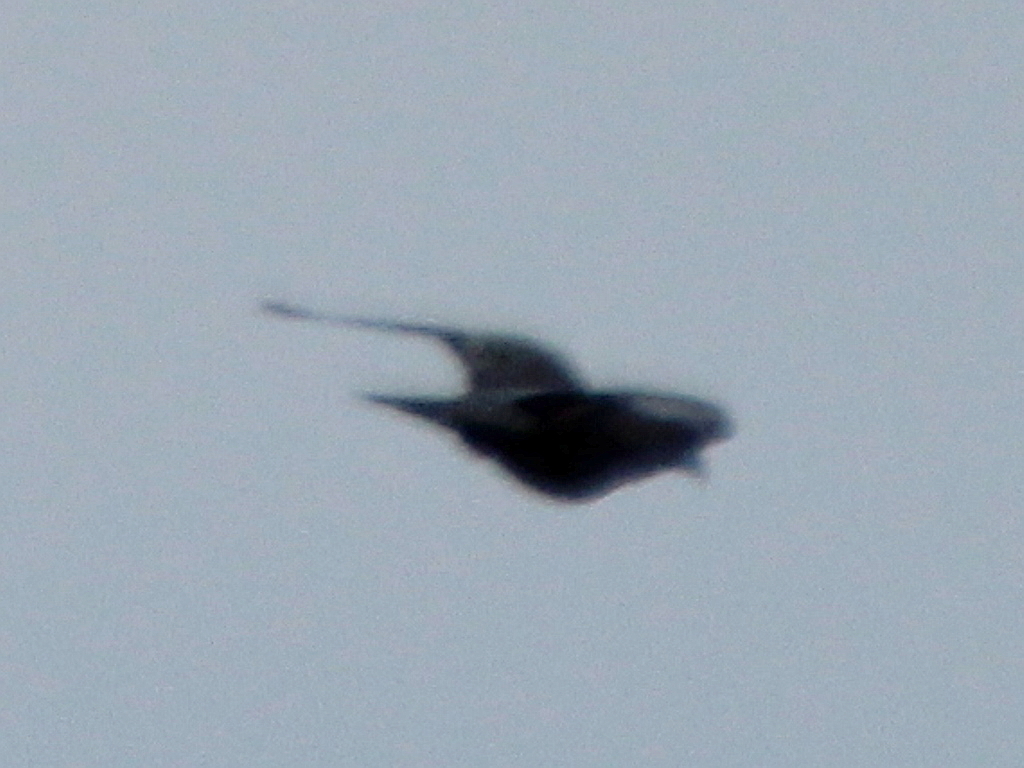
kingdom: Animalia
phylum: Chordata
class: Aves
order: Columbiformes
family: Columbidae
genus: Columba
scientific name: Columba oenas
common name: Stock dove
